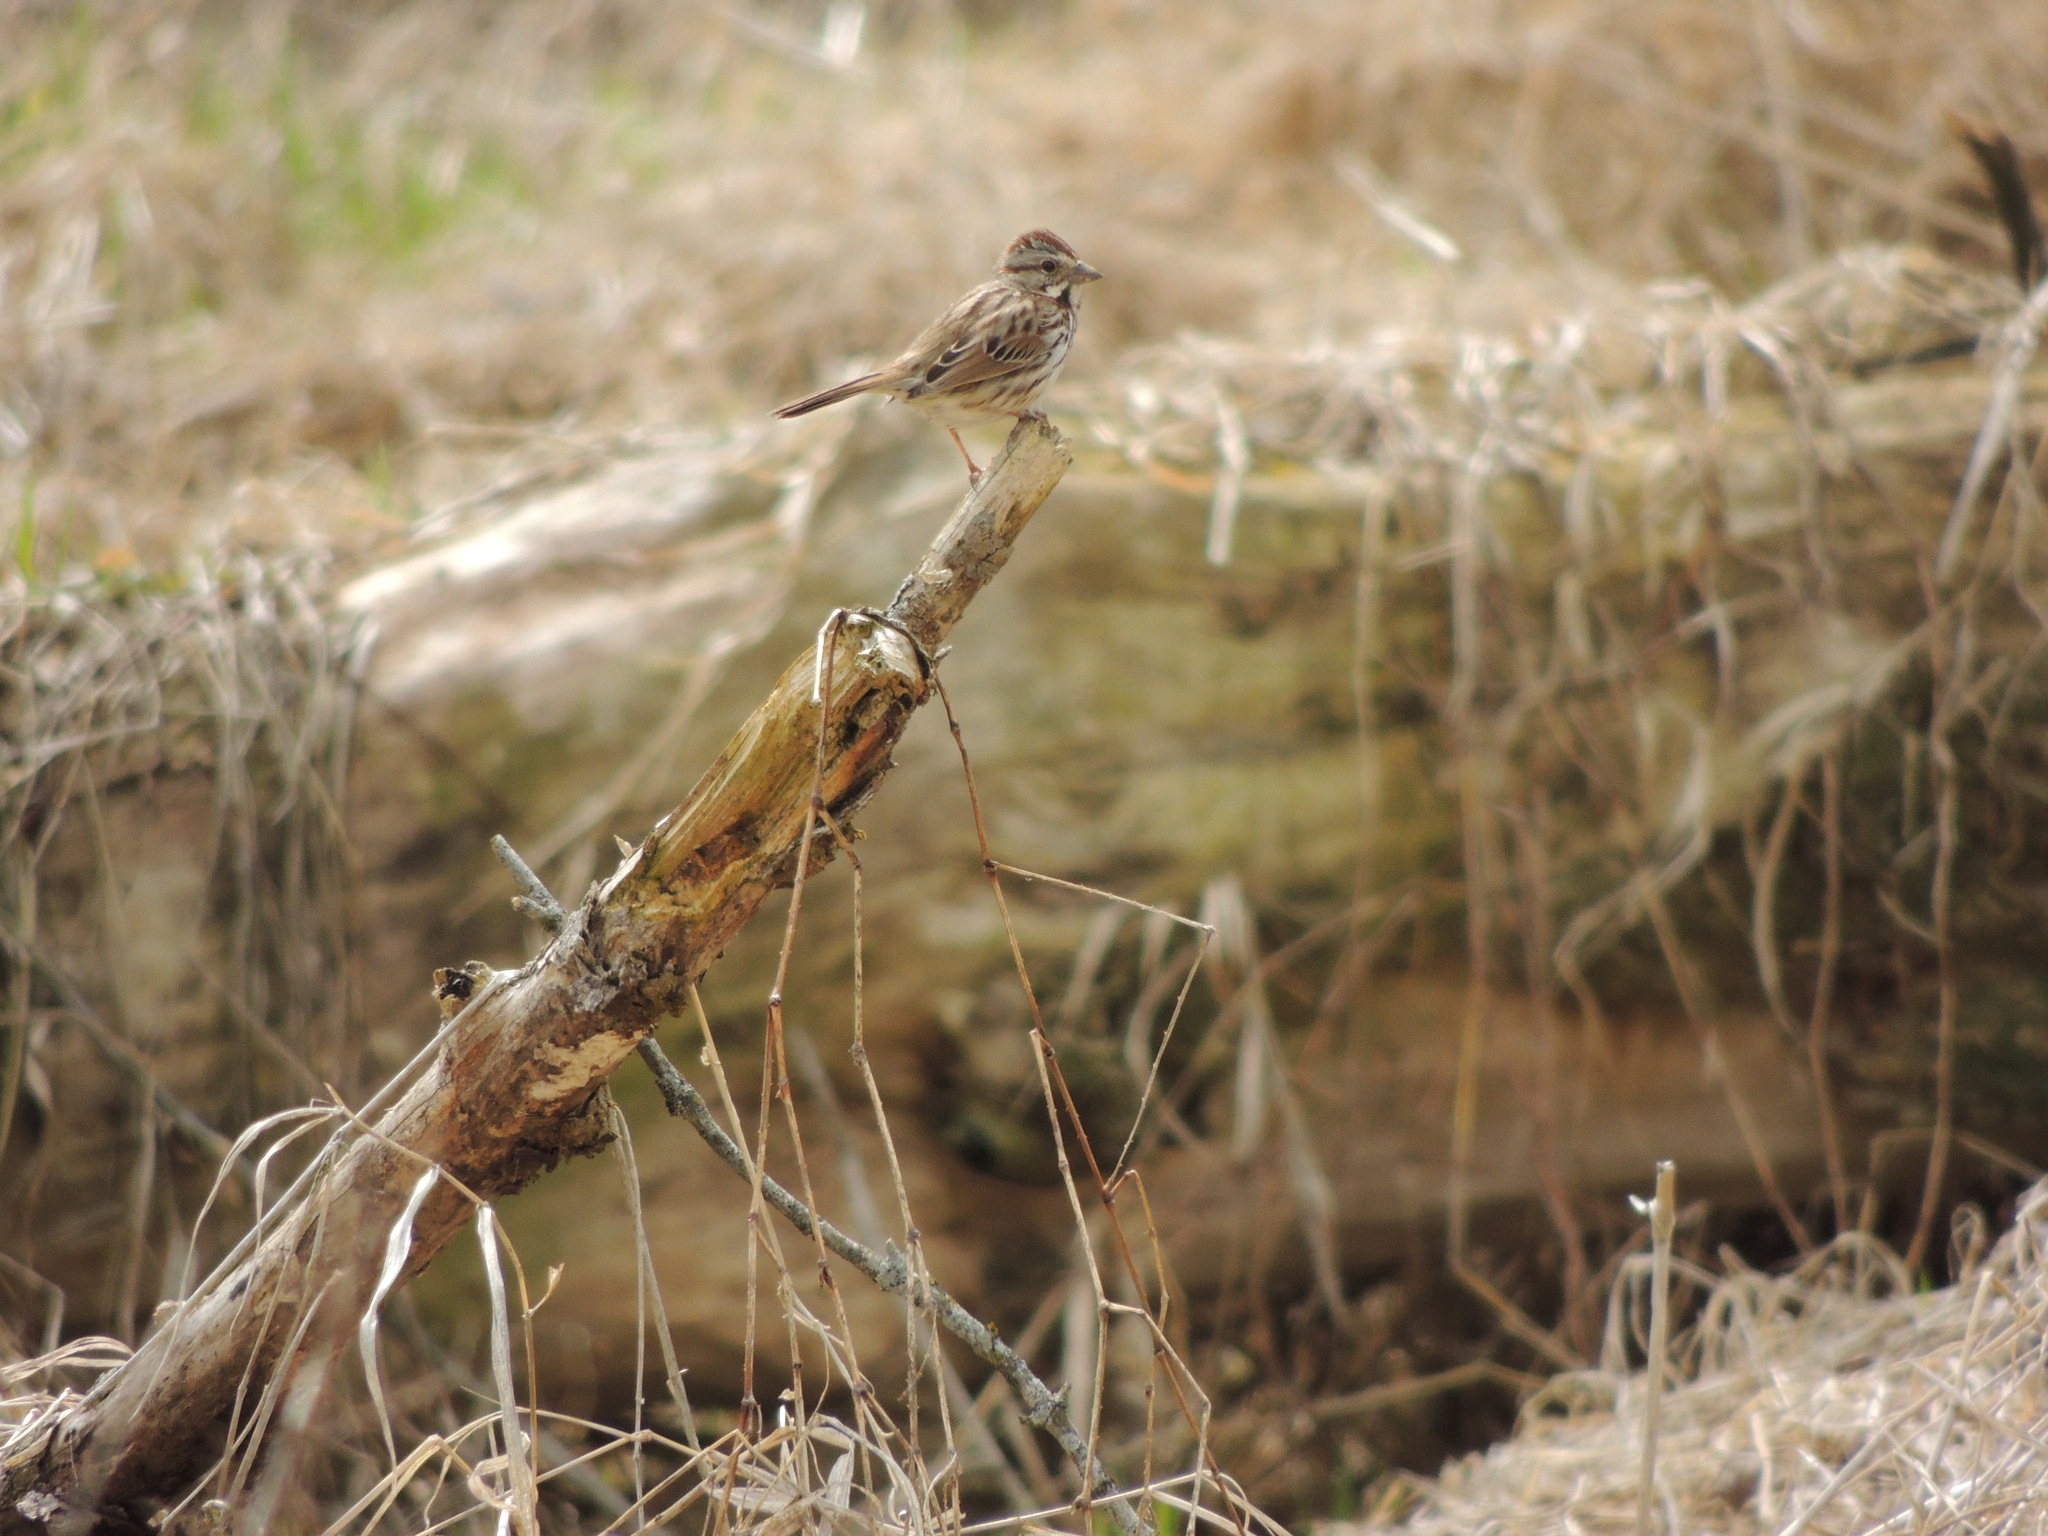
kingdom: Animalia
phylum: Chordata
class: Aves
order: Passeriformes
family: Passerellidae
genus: Melospiza
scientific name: Melospiza melodia
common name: Song sparrow
